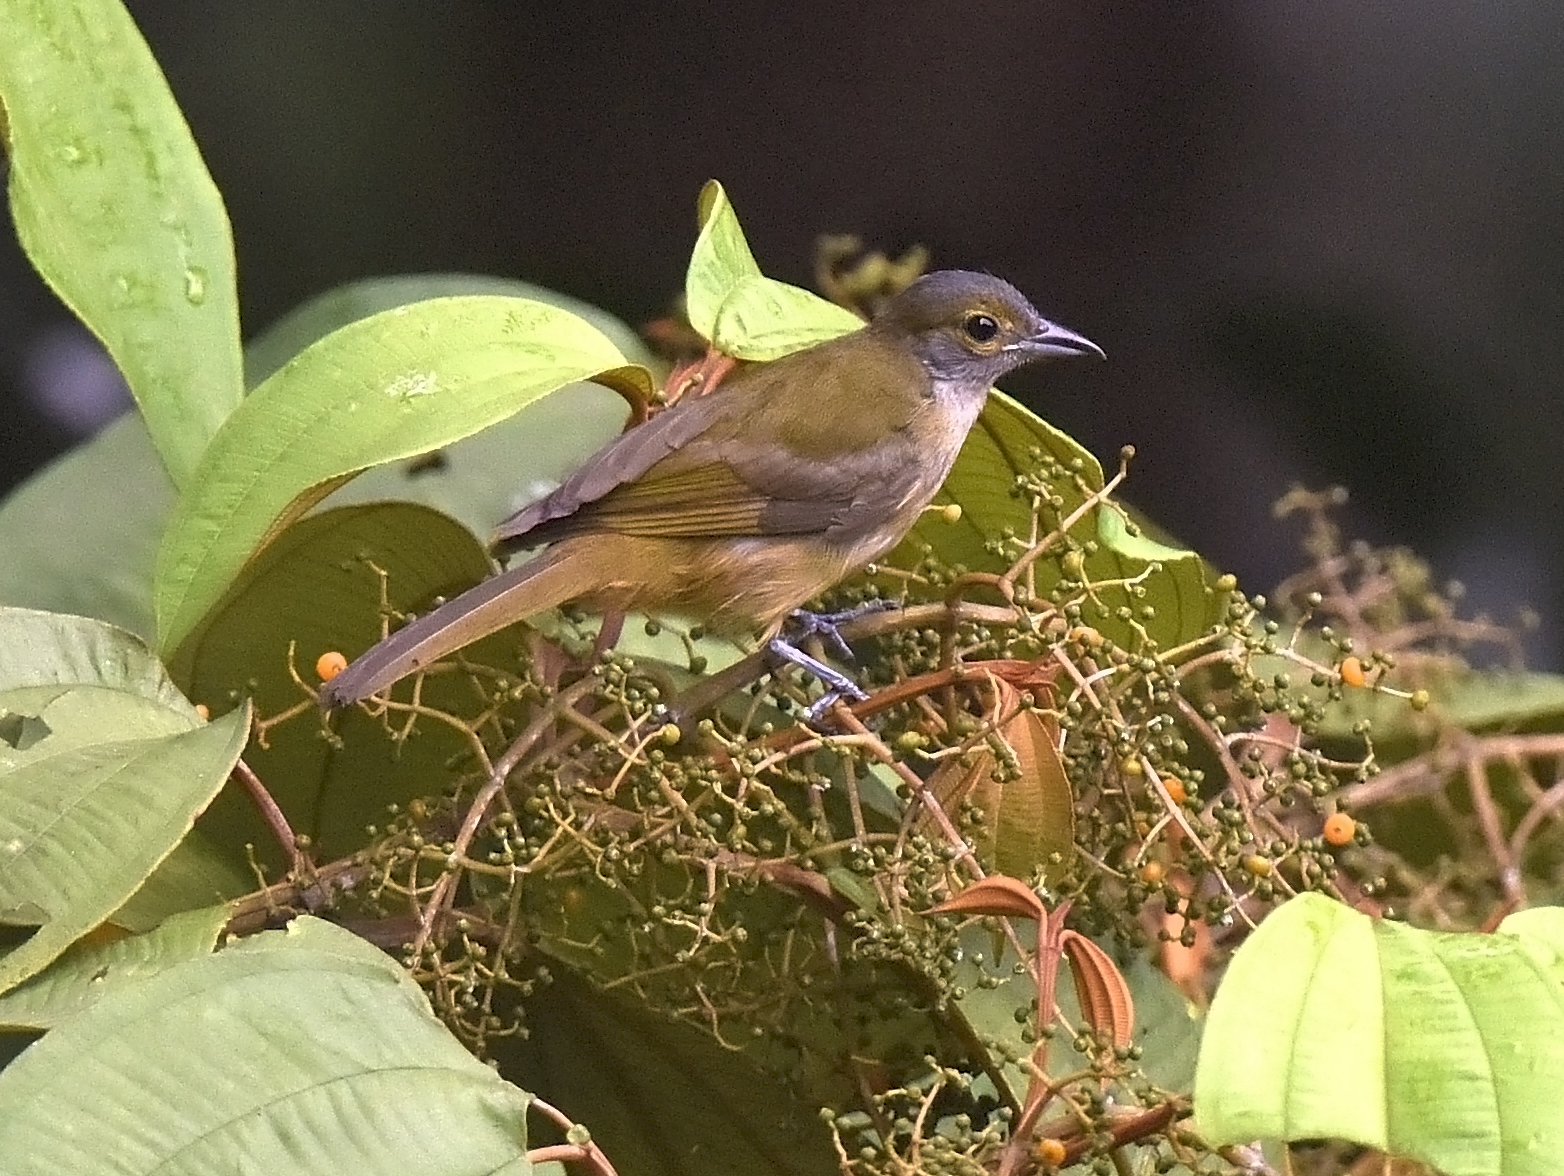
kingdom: Animalia
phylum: Chordata
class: Aves
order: Passeriformes
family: Thraupidae
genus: Tachyphonus
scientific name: Tachyphonus surinamus
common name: Fulvous-crested tanager
